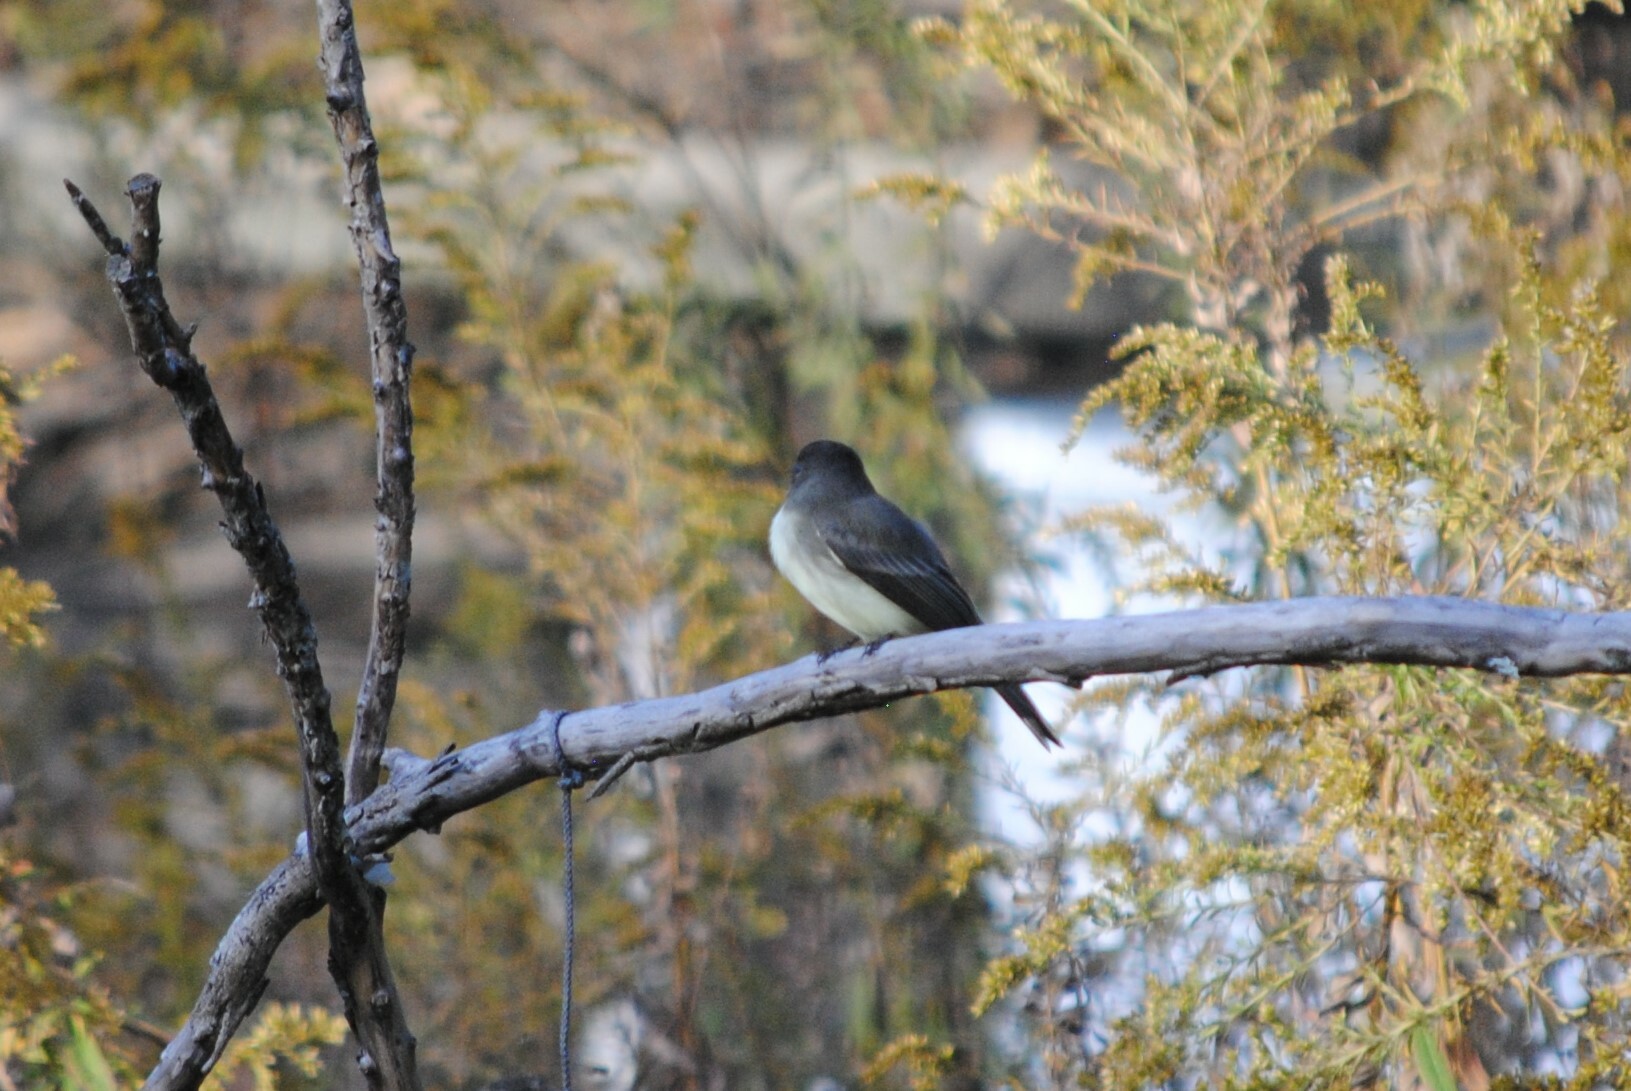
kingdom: Animalia
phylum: Chordata
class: Aves
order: Passeriformes
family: Tyrannidae
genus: Sayornis
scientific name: Sayornis phoebe
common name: Eastern phoebe
